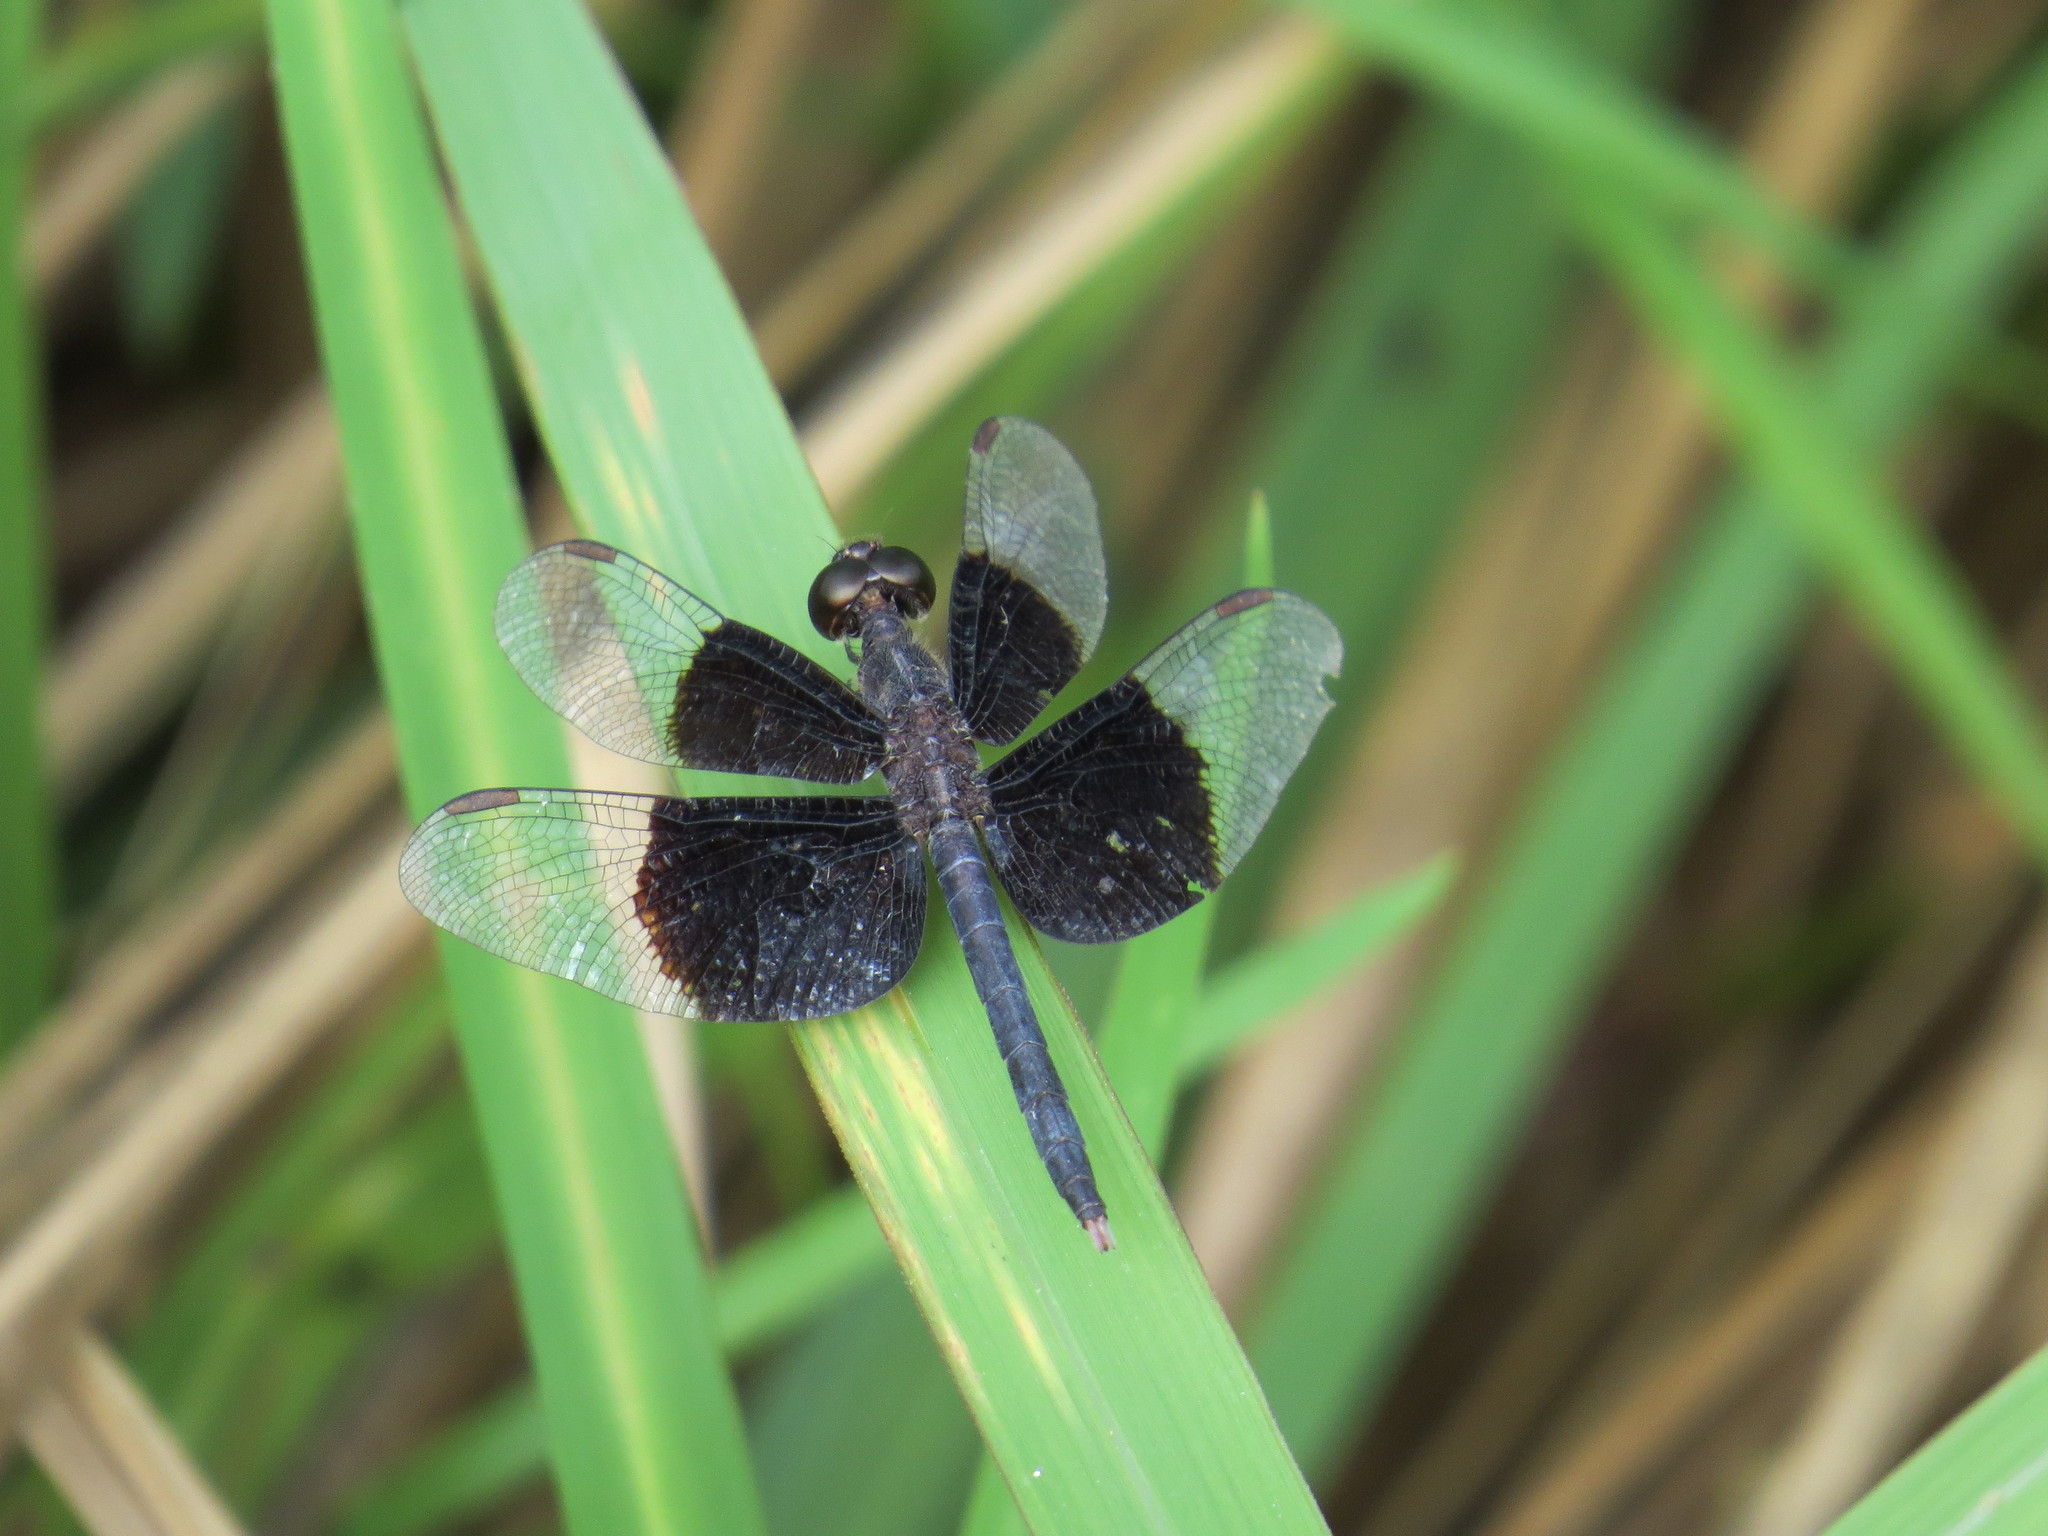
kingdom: Animalia
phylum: Arthropoda
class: Insecta
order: Odonata
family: Libellulidae
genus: Neurothemis
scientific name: Neurothemis tullia
